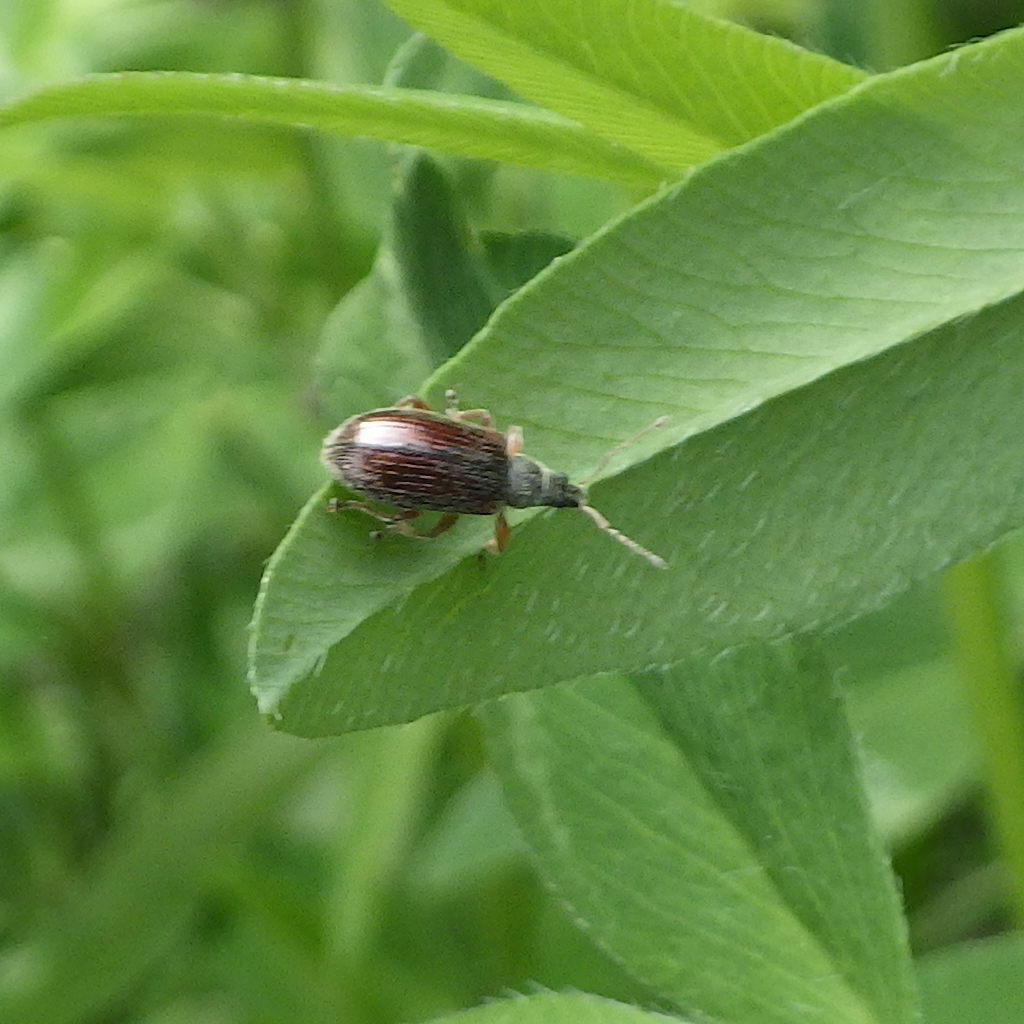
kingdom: Animalia
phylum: Arthropoda
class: Insecta
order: Coleoptera
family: Curculionidae
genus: Phyllobius
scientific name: Phyllobius oblongus
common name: Brown leaf weevil
